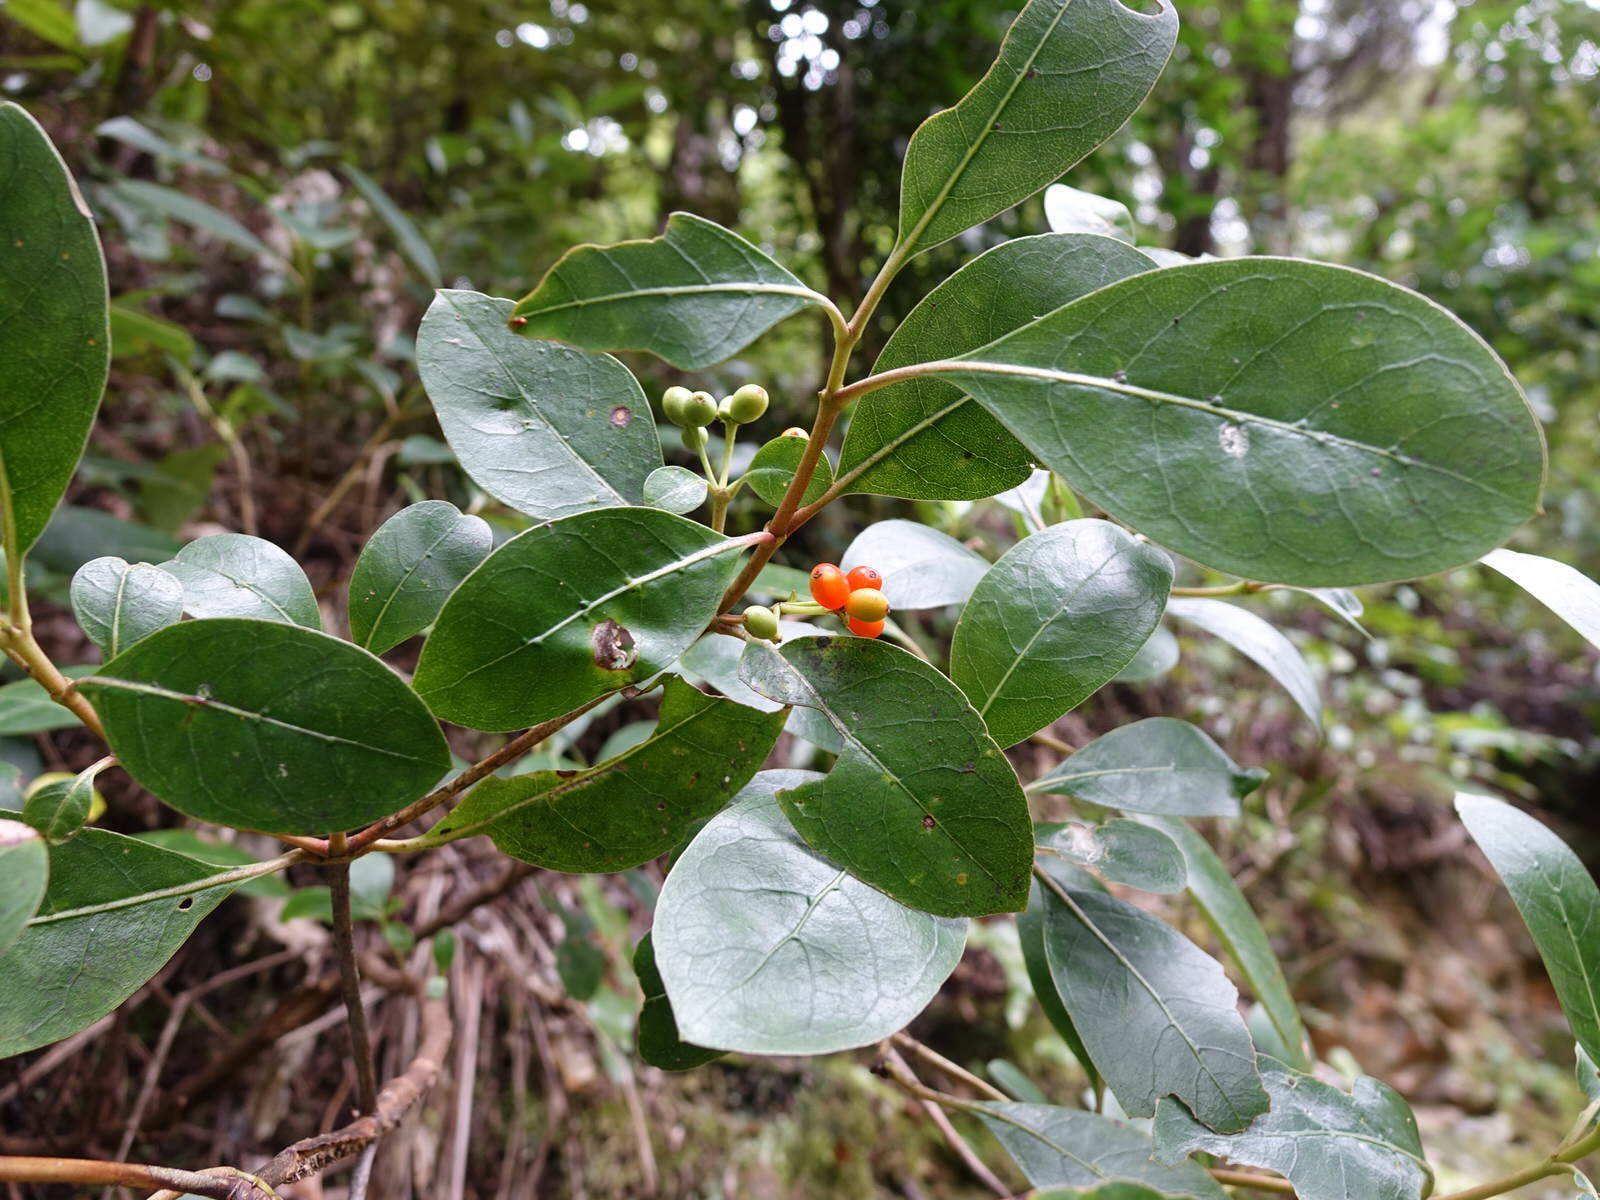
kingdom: Plantae
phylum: Tracheophyta
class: Magnoliopsida
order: Gentianales
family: Rubiaceae
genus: Coprosma
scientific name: Coprosma lucida
